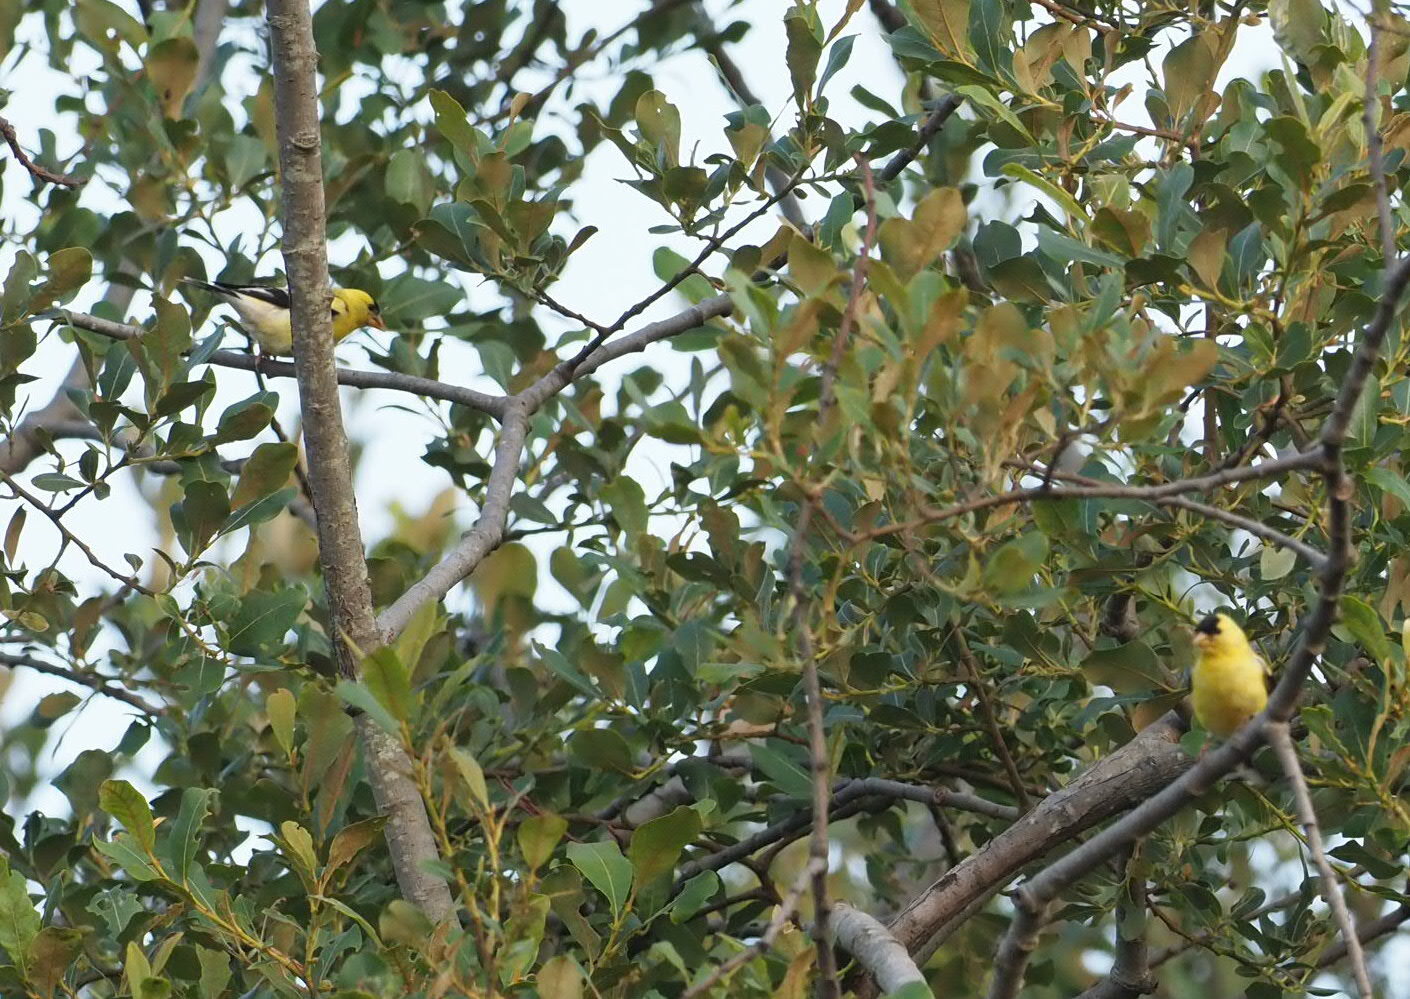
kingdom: Animalia
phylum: Chordata
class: Aves
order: Passeriformes
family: Fringillidae
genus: Spinus
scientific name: Spinus tristis
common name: American goldfinch
